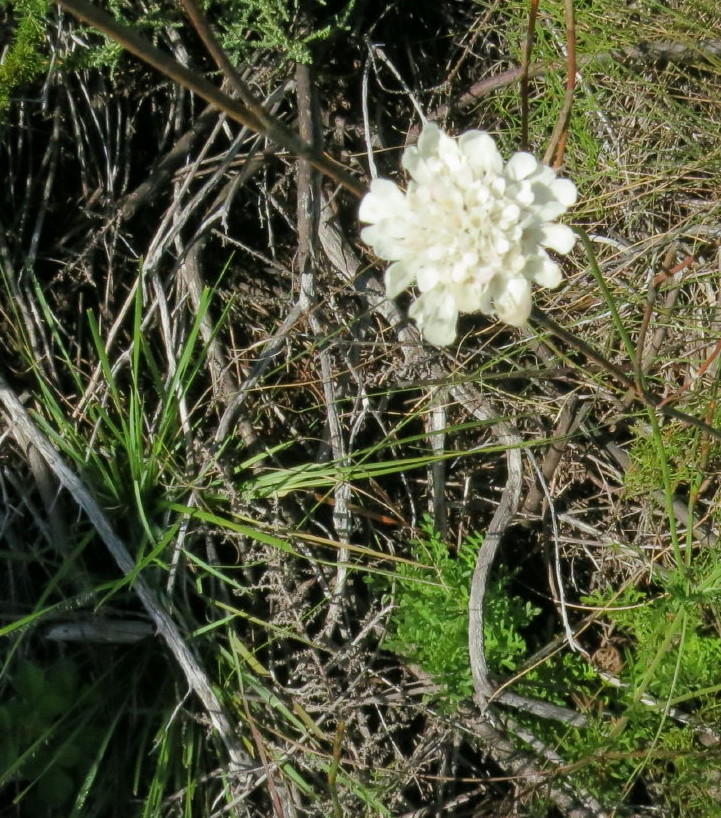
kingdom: Plantae
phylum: Tracheophyta
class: Magnoliopsida
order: Dipsacales
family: Caprifoliaceae
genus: Scabiosa
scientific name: Scabiosa columbaria
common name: Small scabious
